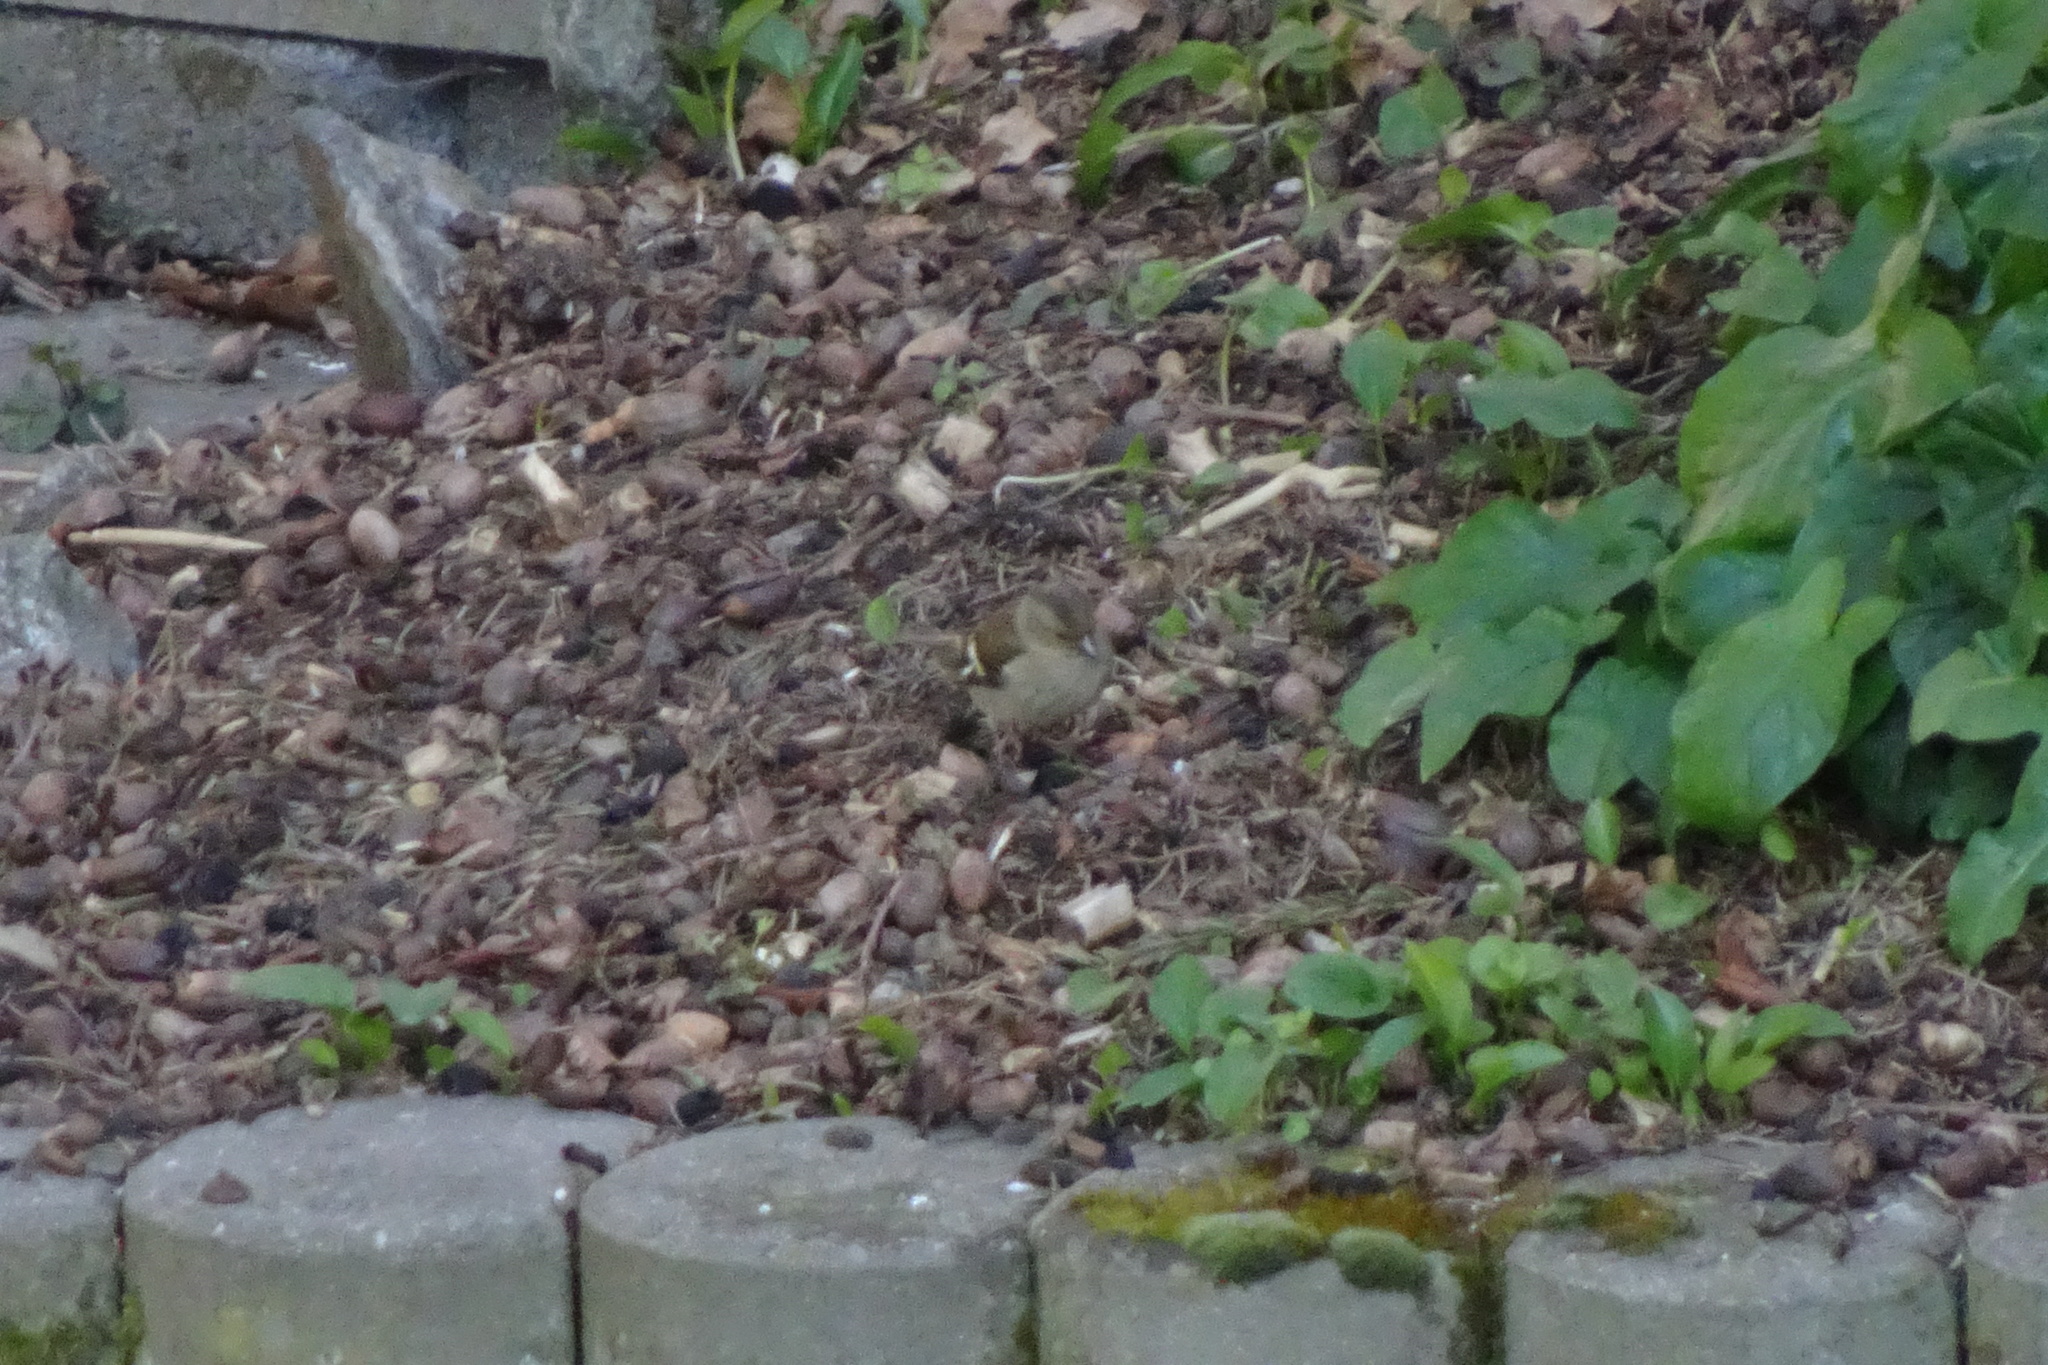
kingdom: Animalia
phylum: Chordata
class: Aves
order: Passeriformes
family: Fringillidae
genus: Fringilla
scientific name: Fringilla coelebs
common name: Common chaffinch
